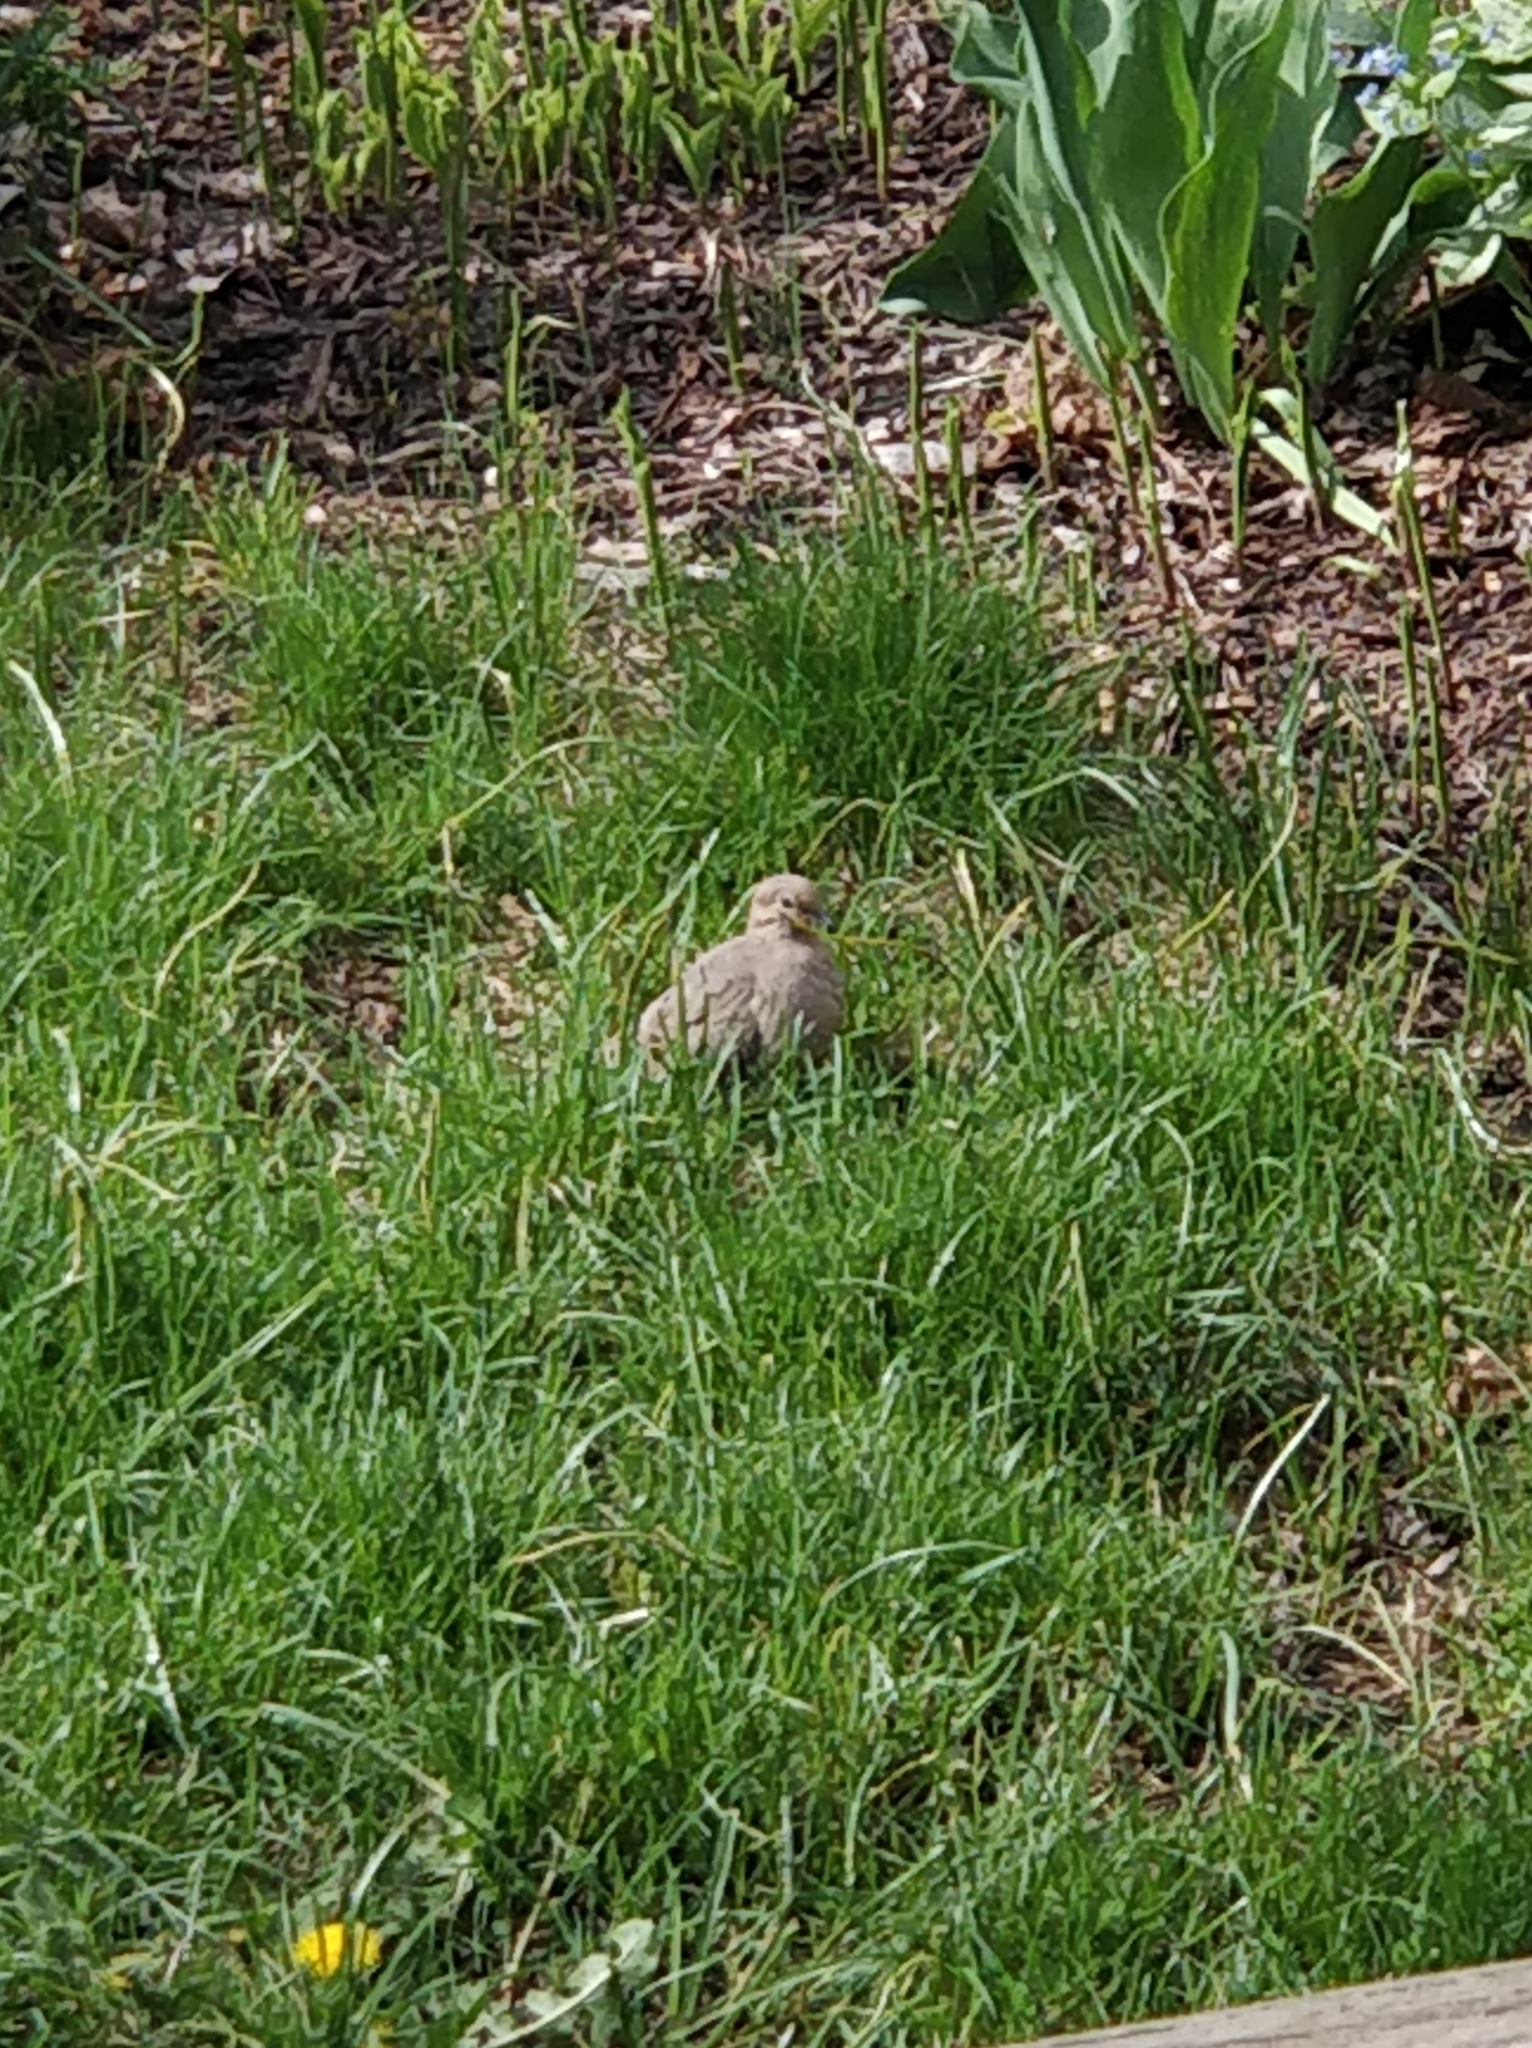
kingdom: Animalia
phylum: Chordata
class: Aves
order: Columbiformes
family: Columbidae
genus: Zenaida
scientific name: Zenaida macroura
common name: Mourning dove
